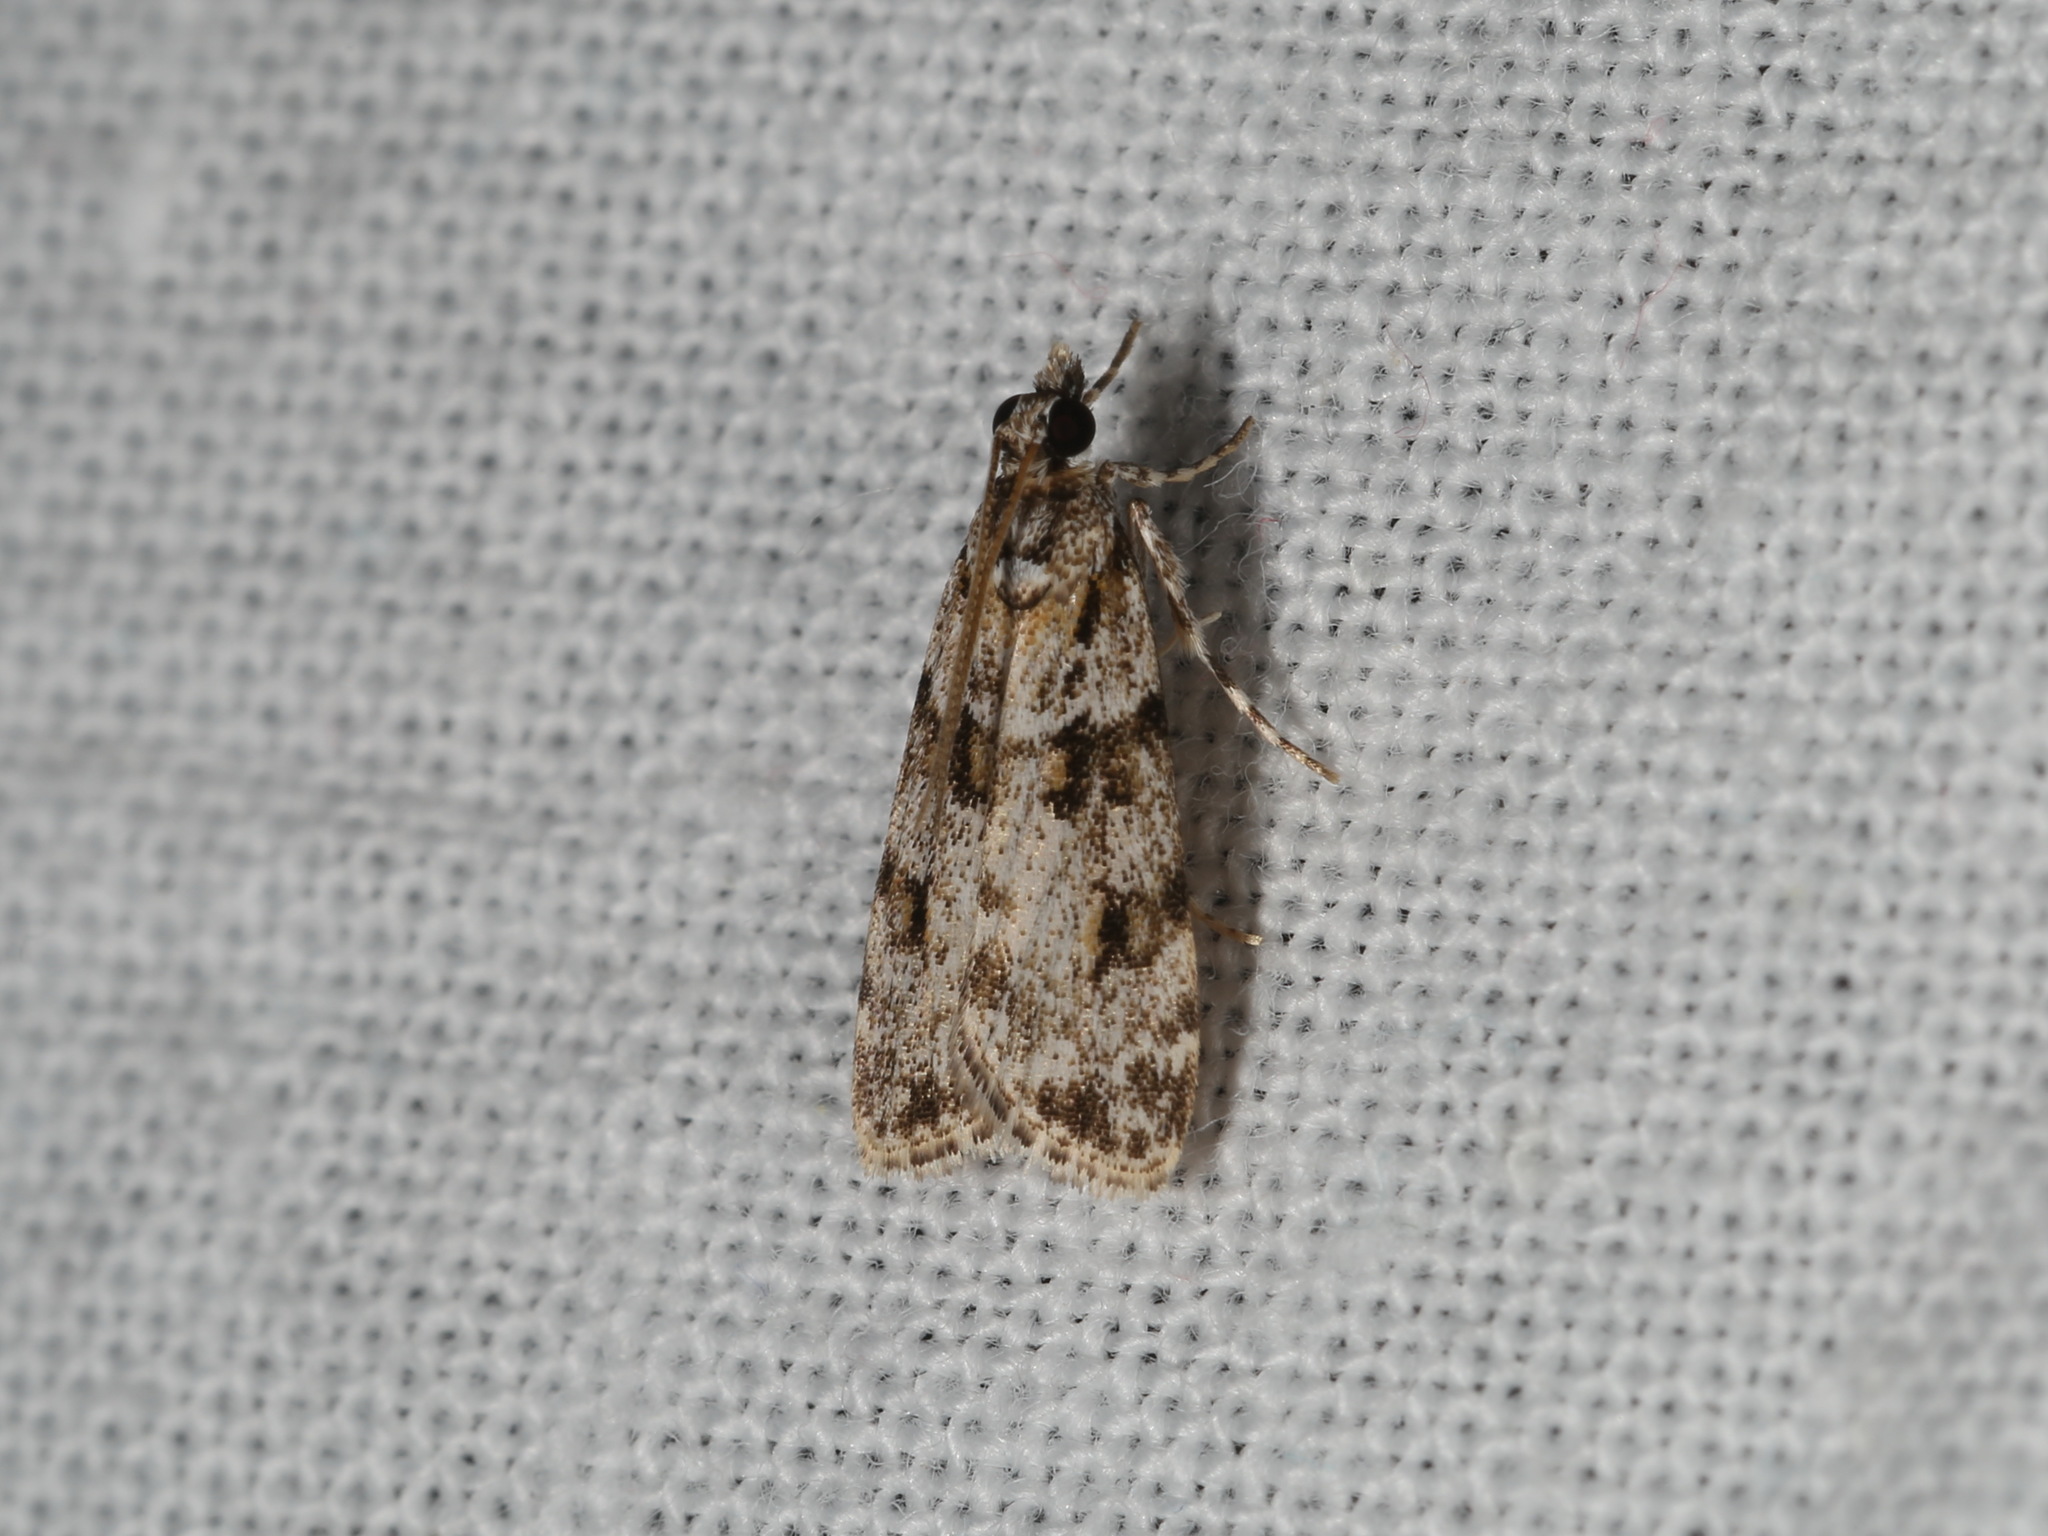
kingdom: Animalia
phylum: Arthropoda
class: Insecta
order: Lepidoptera
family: Crambidae
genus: Scoparia
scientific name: Scoparia chiasta
